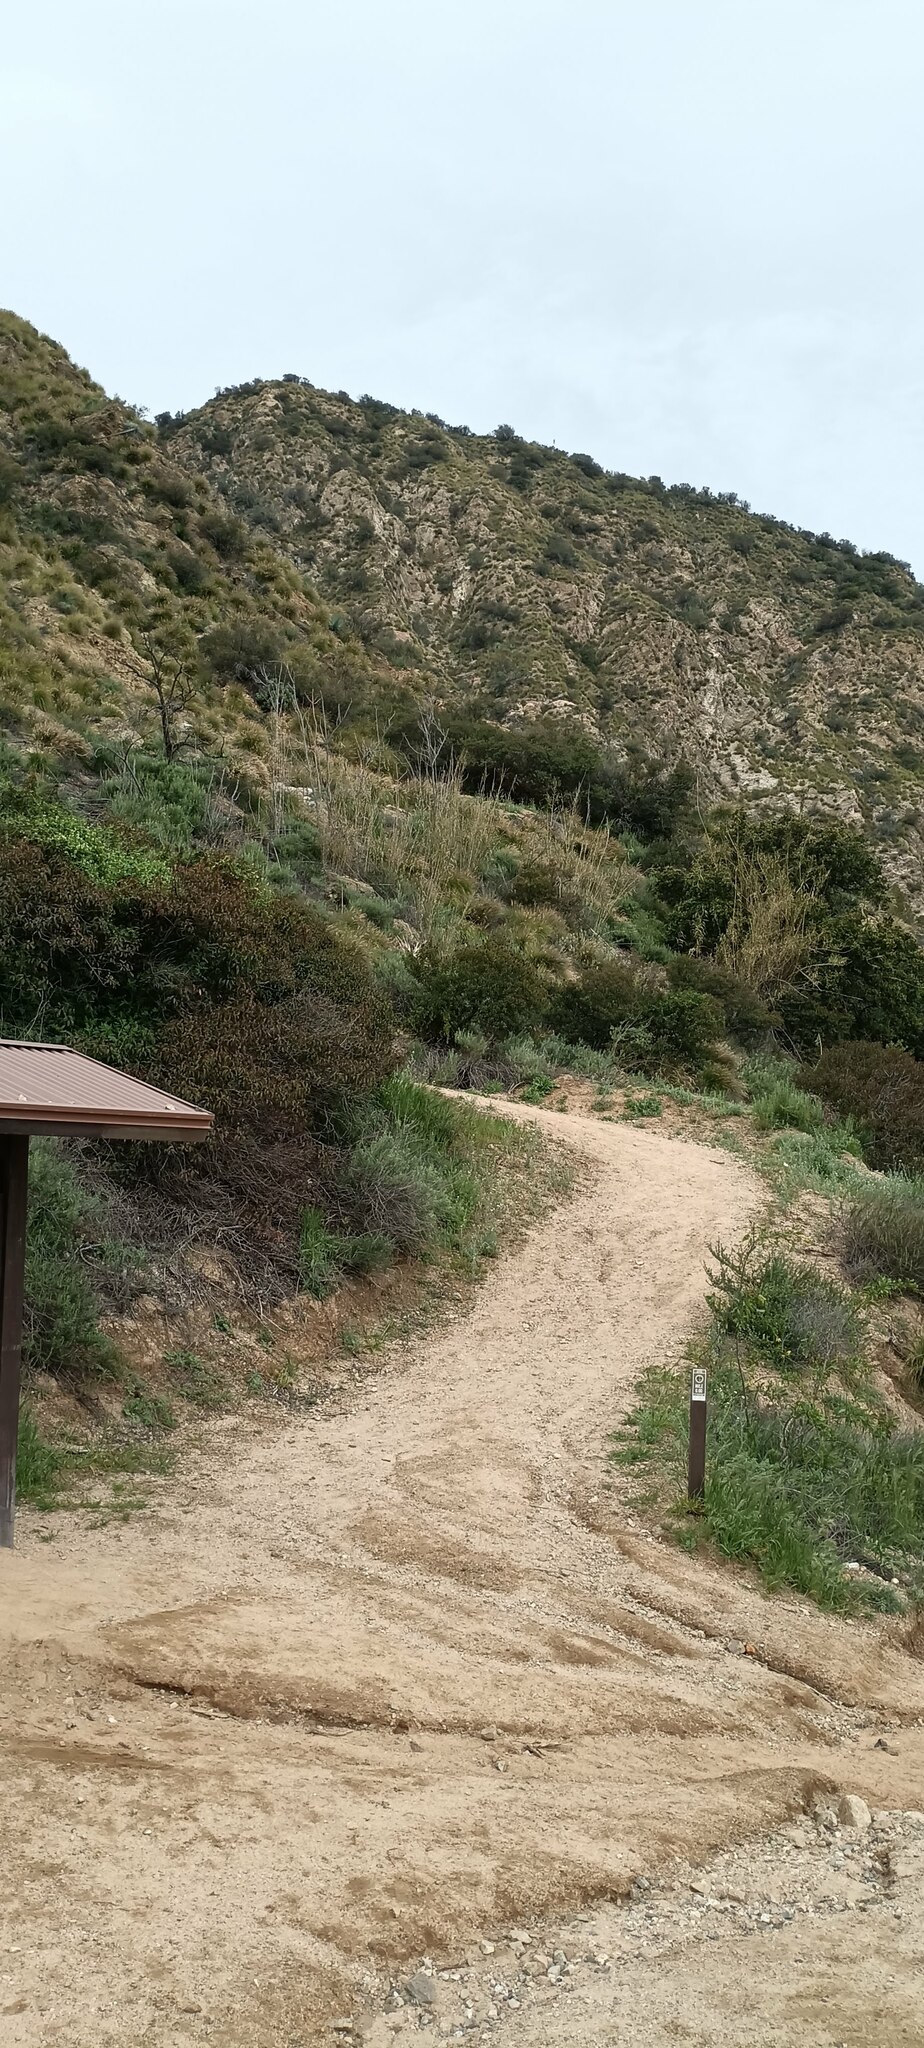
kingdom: Plantae
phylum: Tracheophyta
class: Liliopsida
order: Poales
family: Poaceae
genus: Arundo
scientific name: Arundo donax
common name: Giant reed
